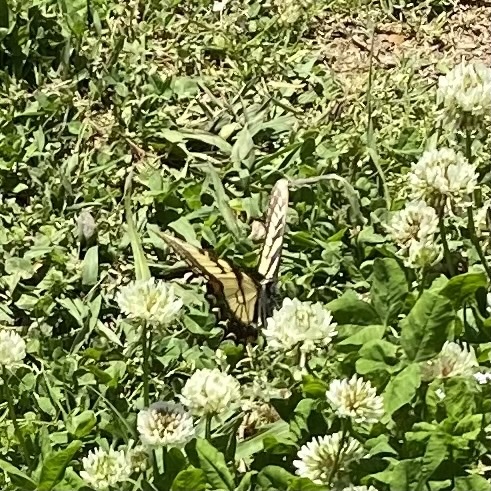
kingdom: Animalia
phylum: Arthropoda
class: Insecta
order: Lepidoptera
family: Papilionidae
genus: Papilio
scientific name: Papilio glaucus
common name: Tiger swallowtail
